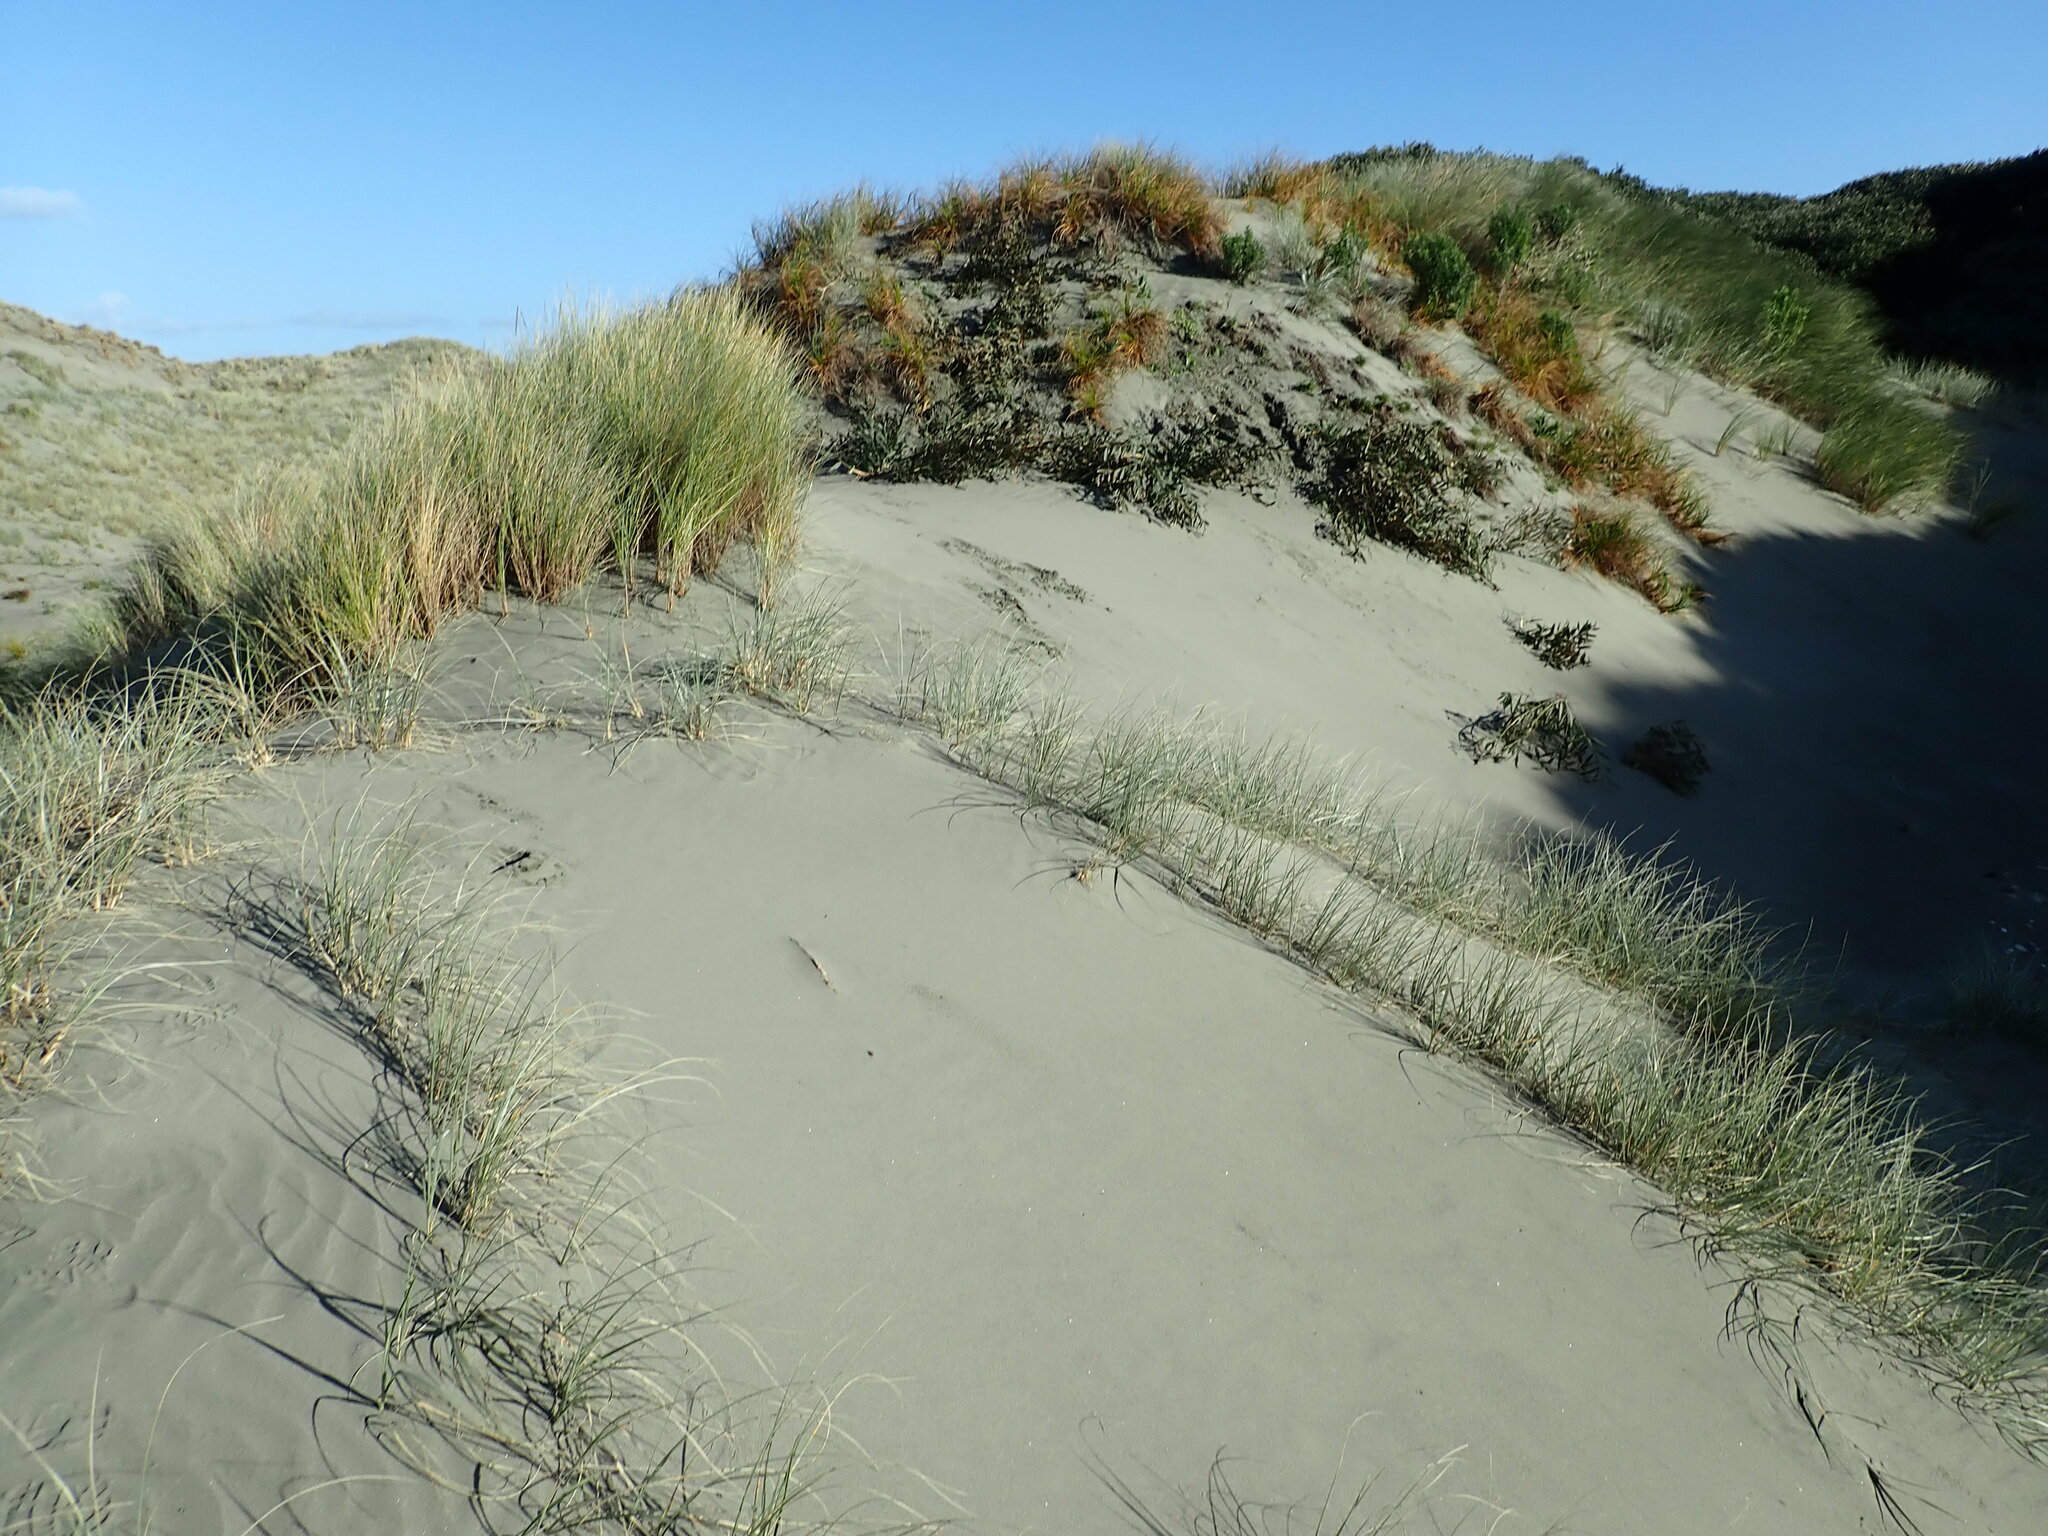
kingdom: Plantae
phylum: Tracheophyta
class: Liliopsida
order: Poales
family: Cyperaceae
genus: Ficinia
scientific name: Ficinia spiralis
